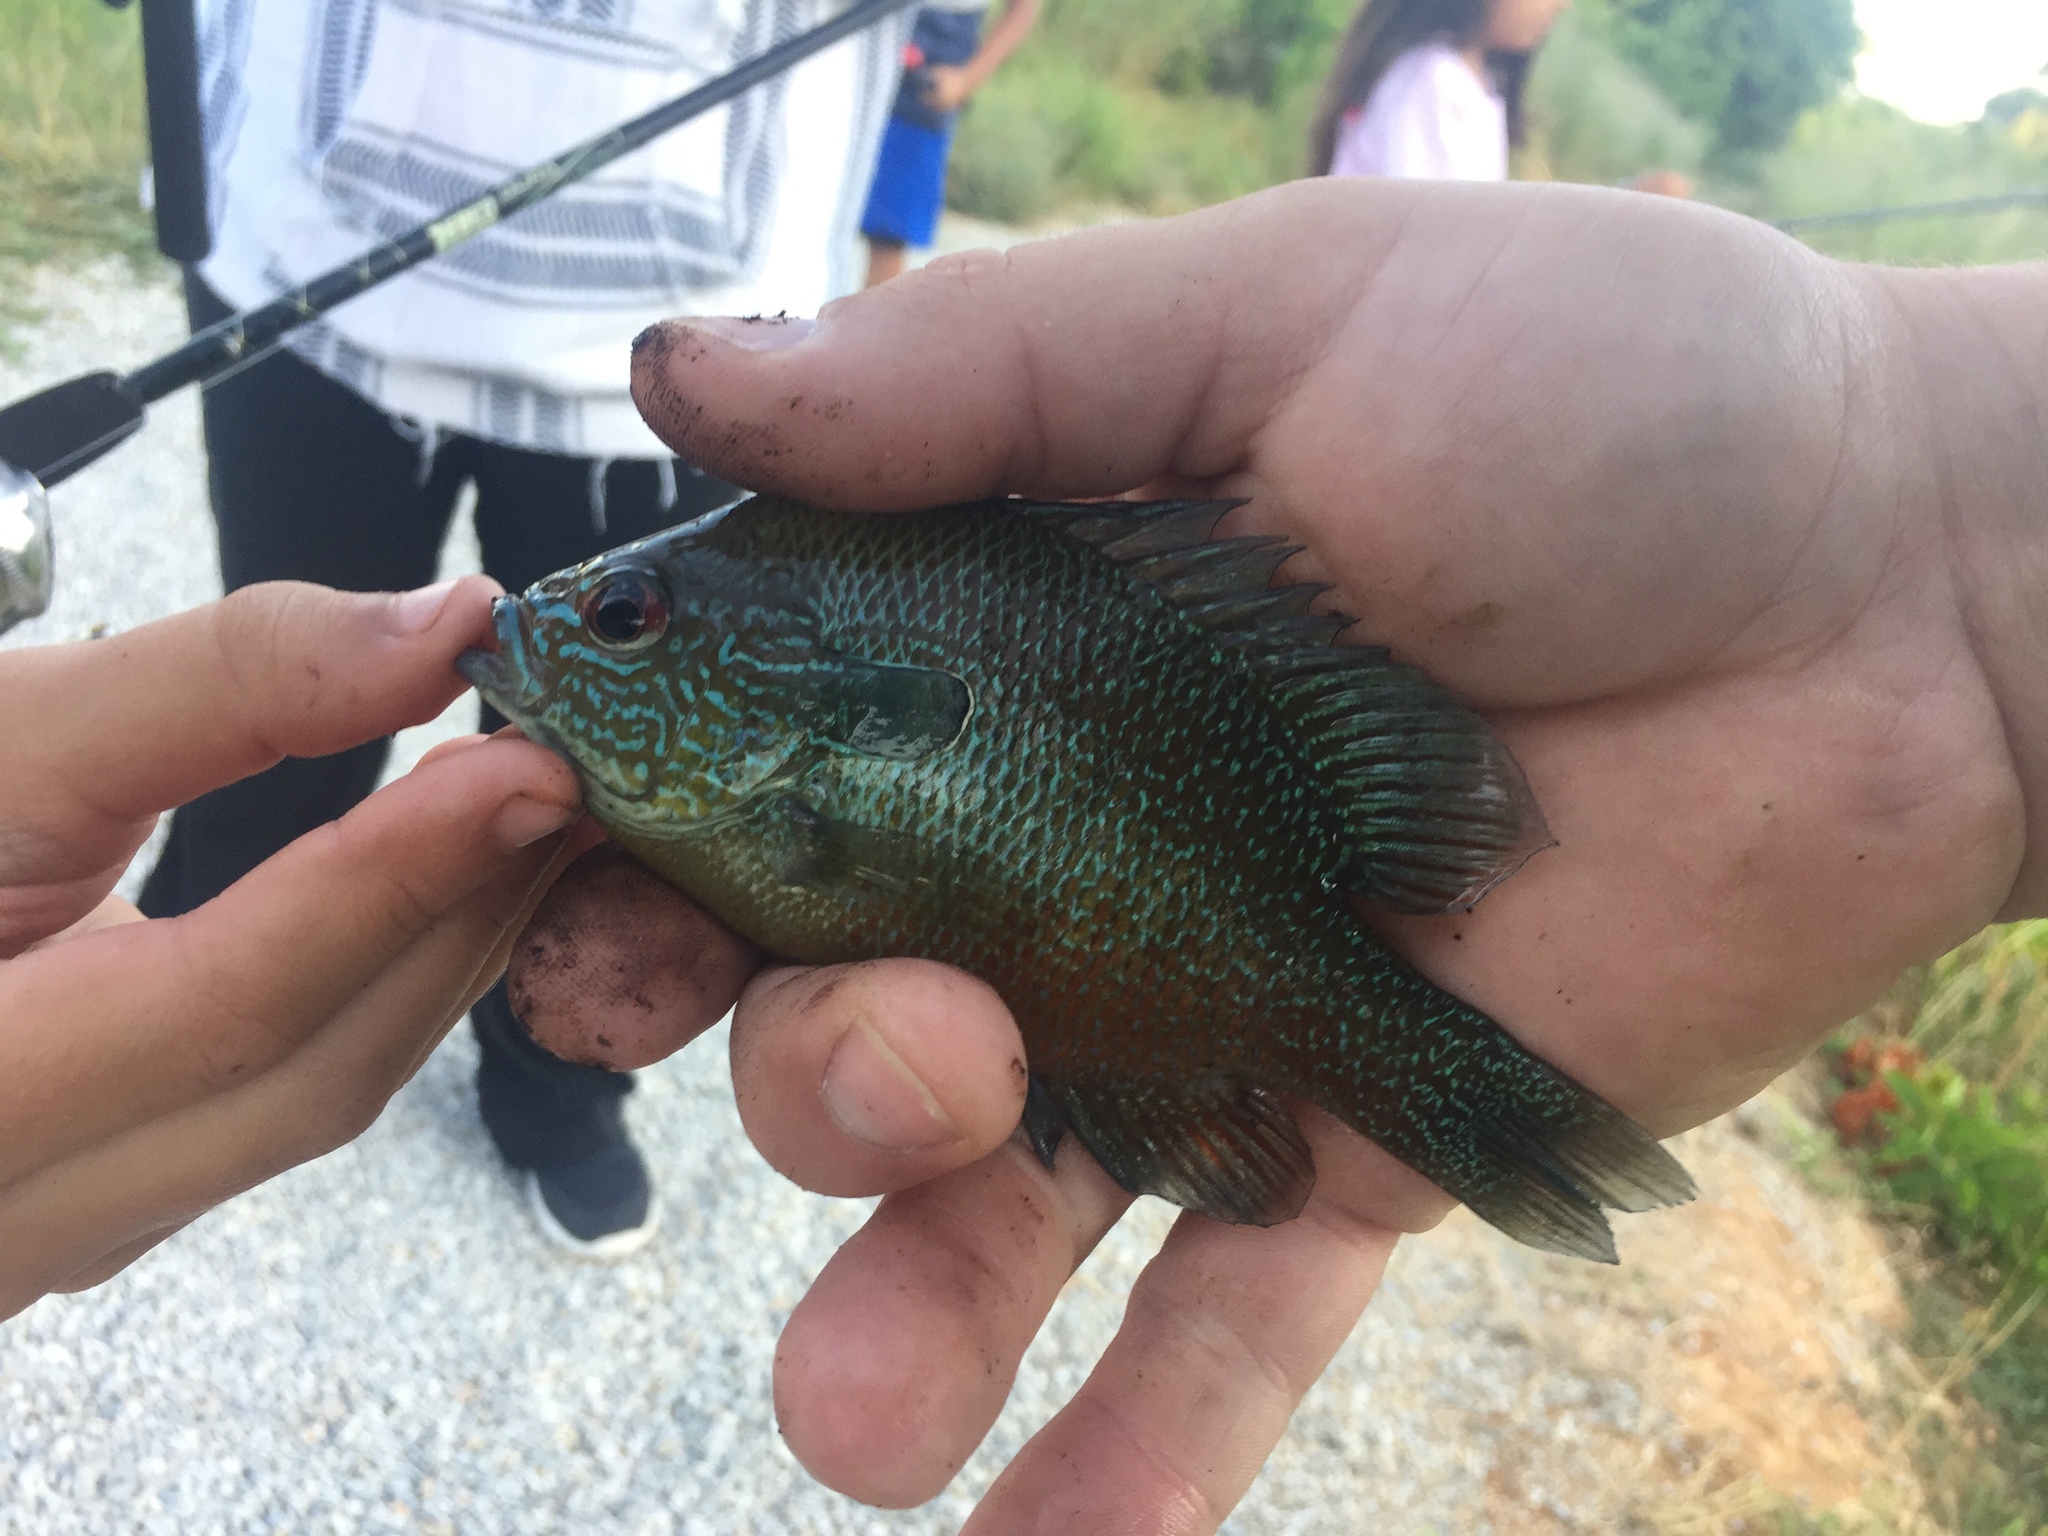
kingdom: Animalia
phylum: Chordata
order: Perciformes
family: Centrarchidae
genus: Lepomis
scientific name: Lepomis megalotis
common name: Longear sunfish
